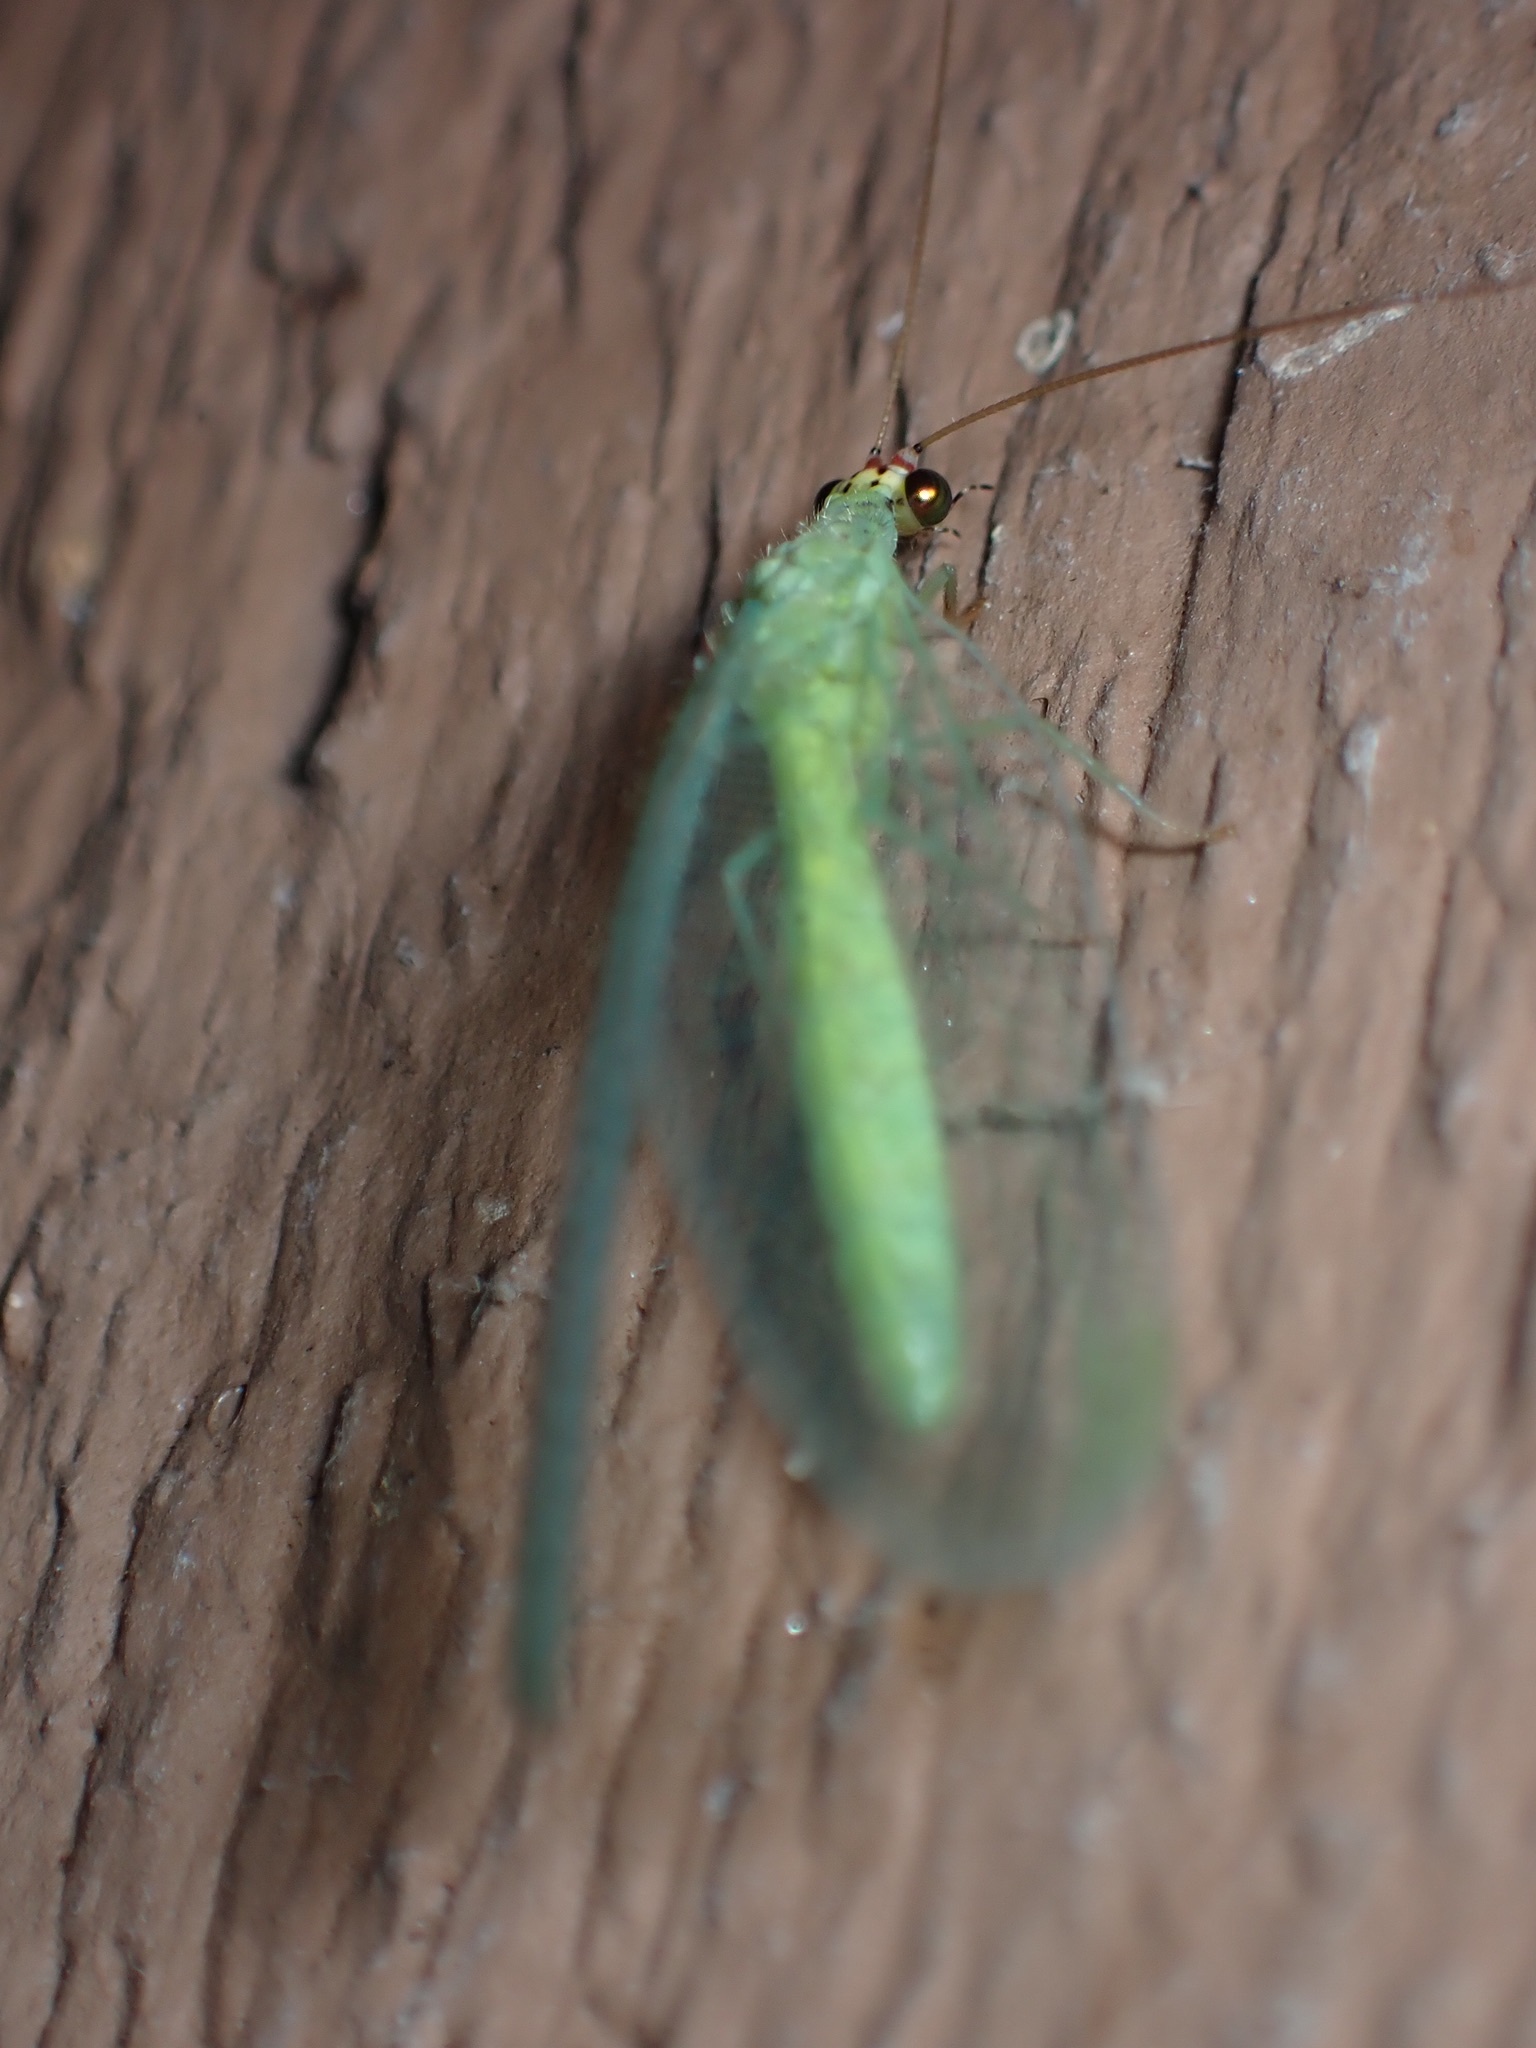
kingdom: Animalia
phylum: Arthropoda
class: Insecta
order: Neuroptera
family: Chrysopidae
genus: Chrysopa
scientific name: Chrysopa oculata
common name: Golden-eyed lacewing
